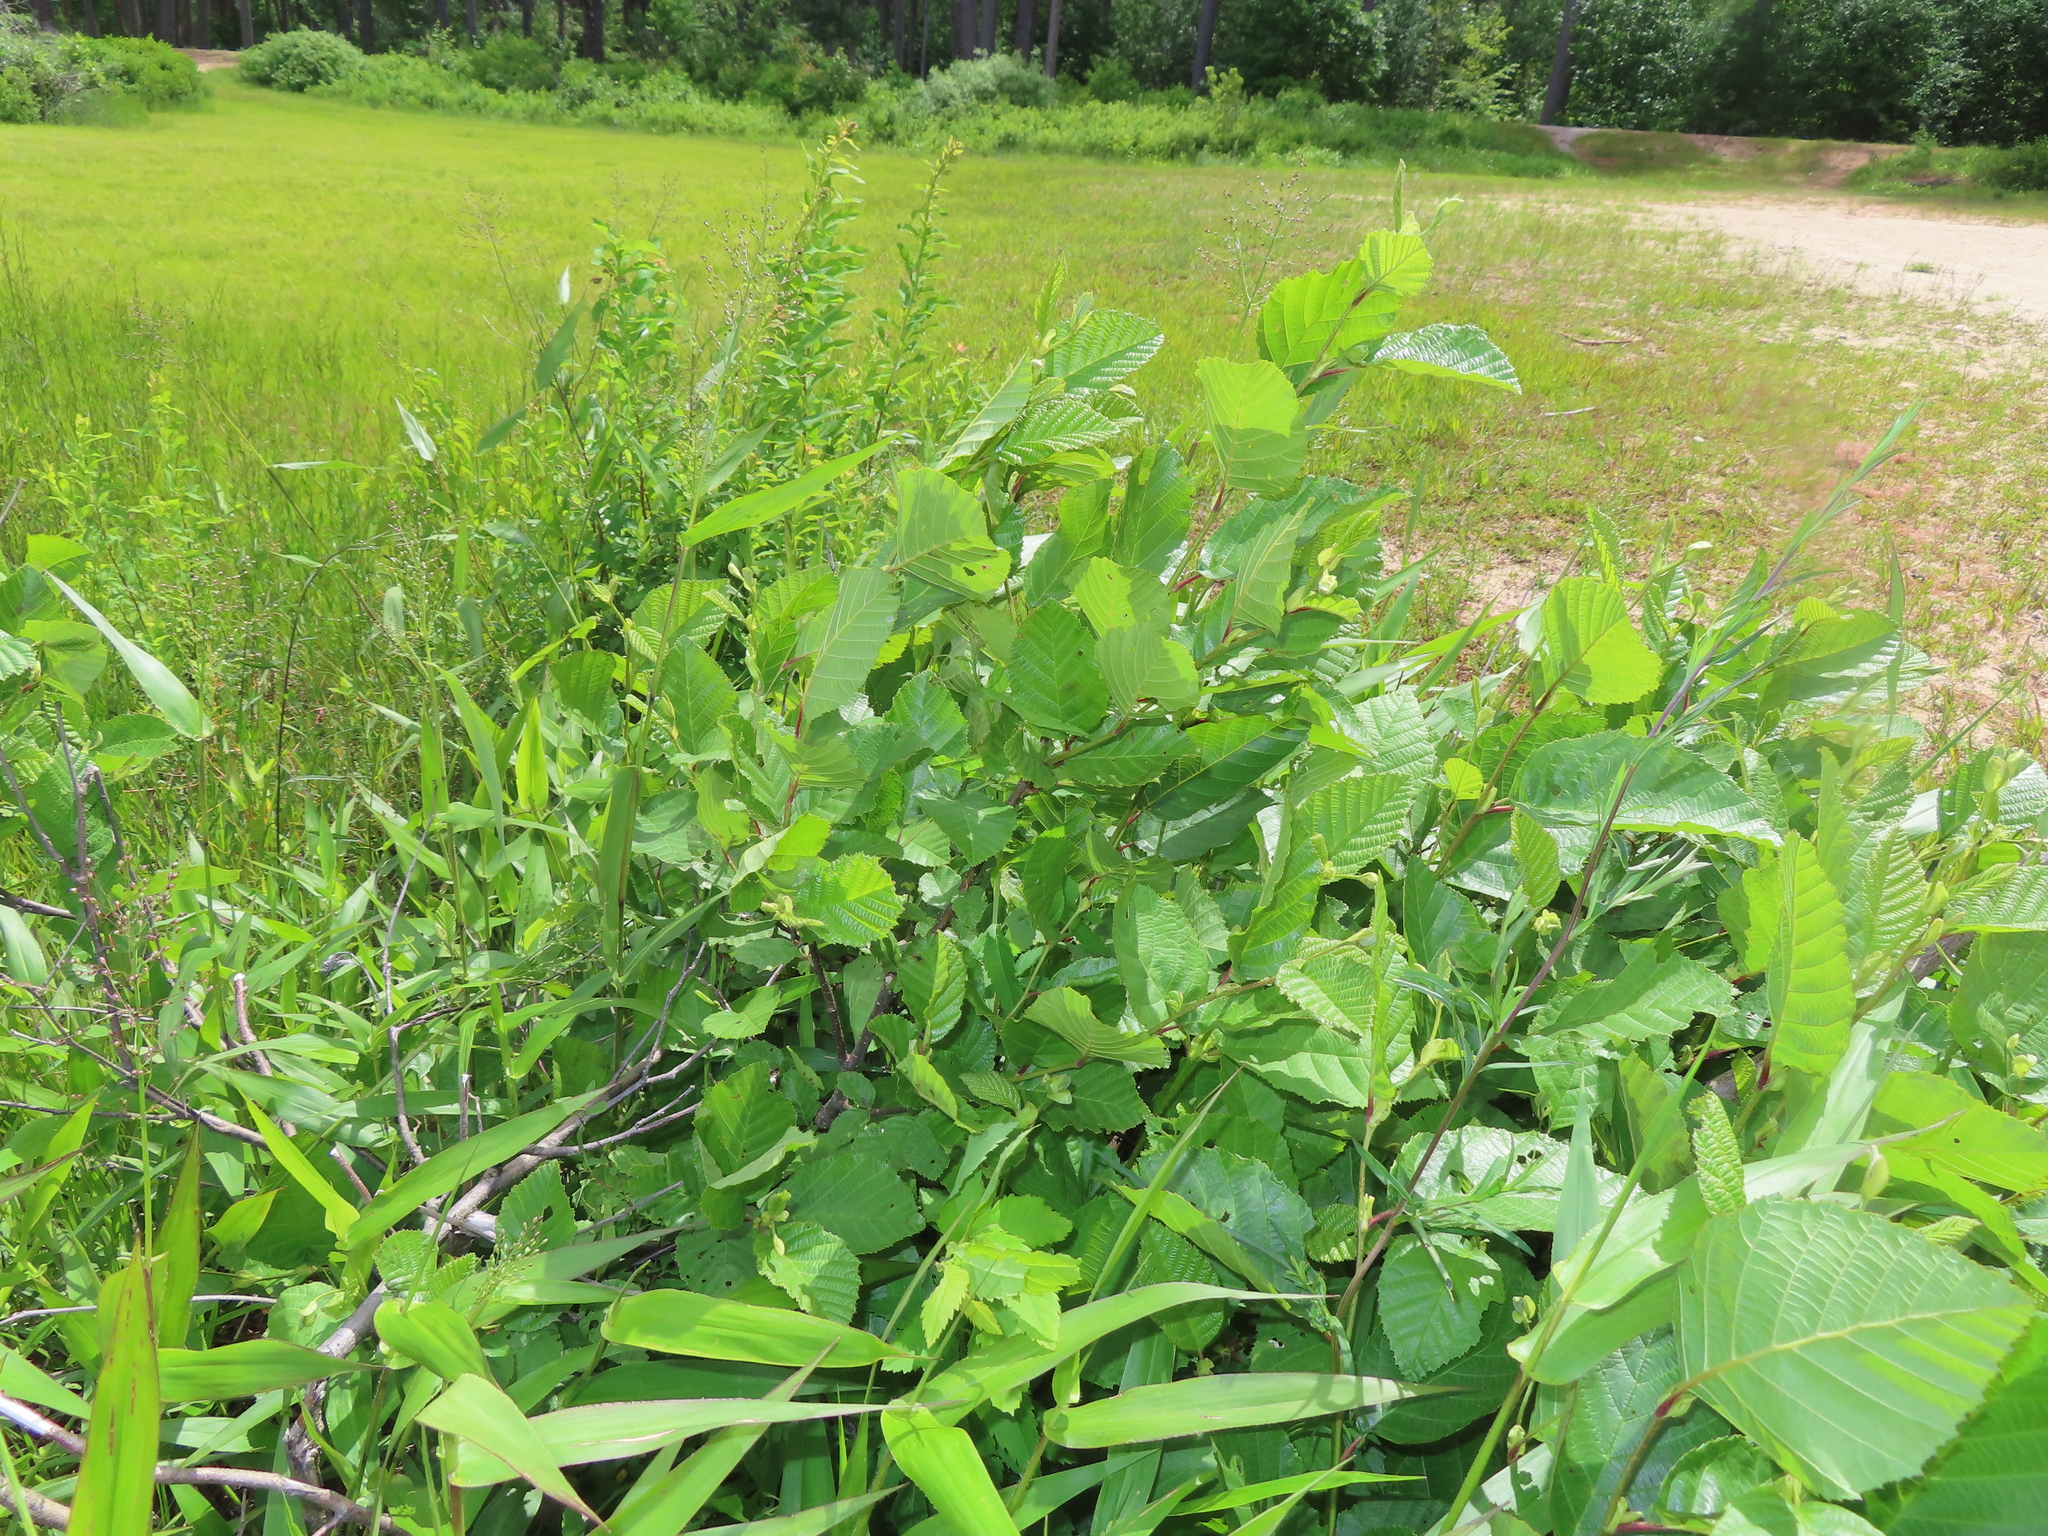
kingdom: Plantae
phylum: Tracheophyta
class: Magnoliopsida
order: Fagales
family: Betulaceae
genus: Alnus
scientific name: Alnus incana
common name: Grey alder
